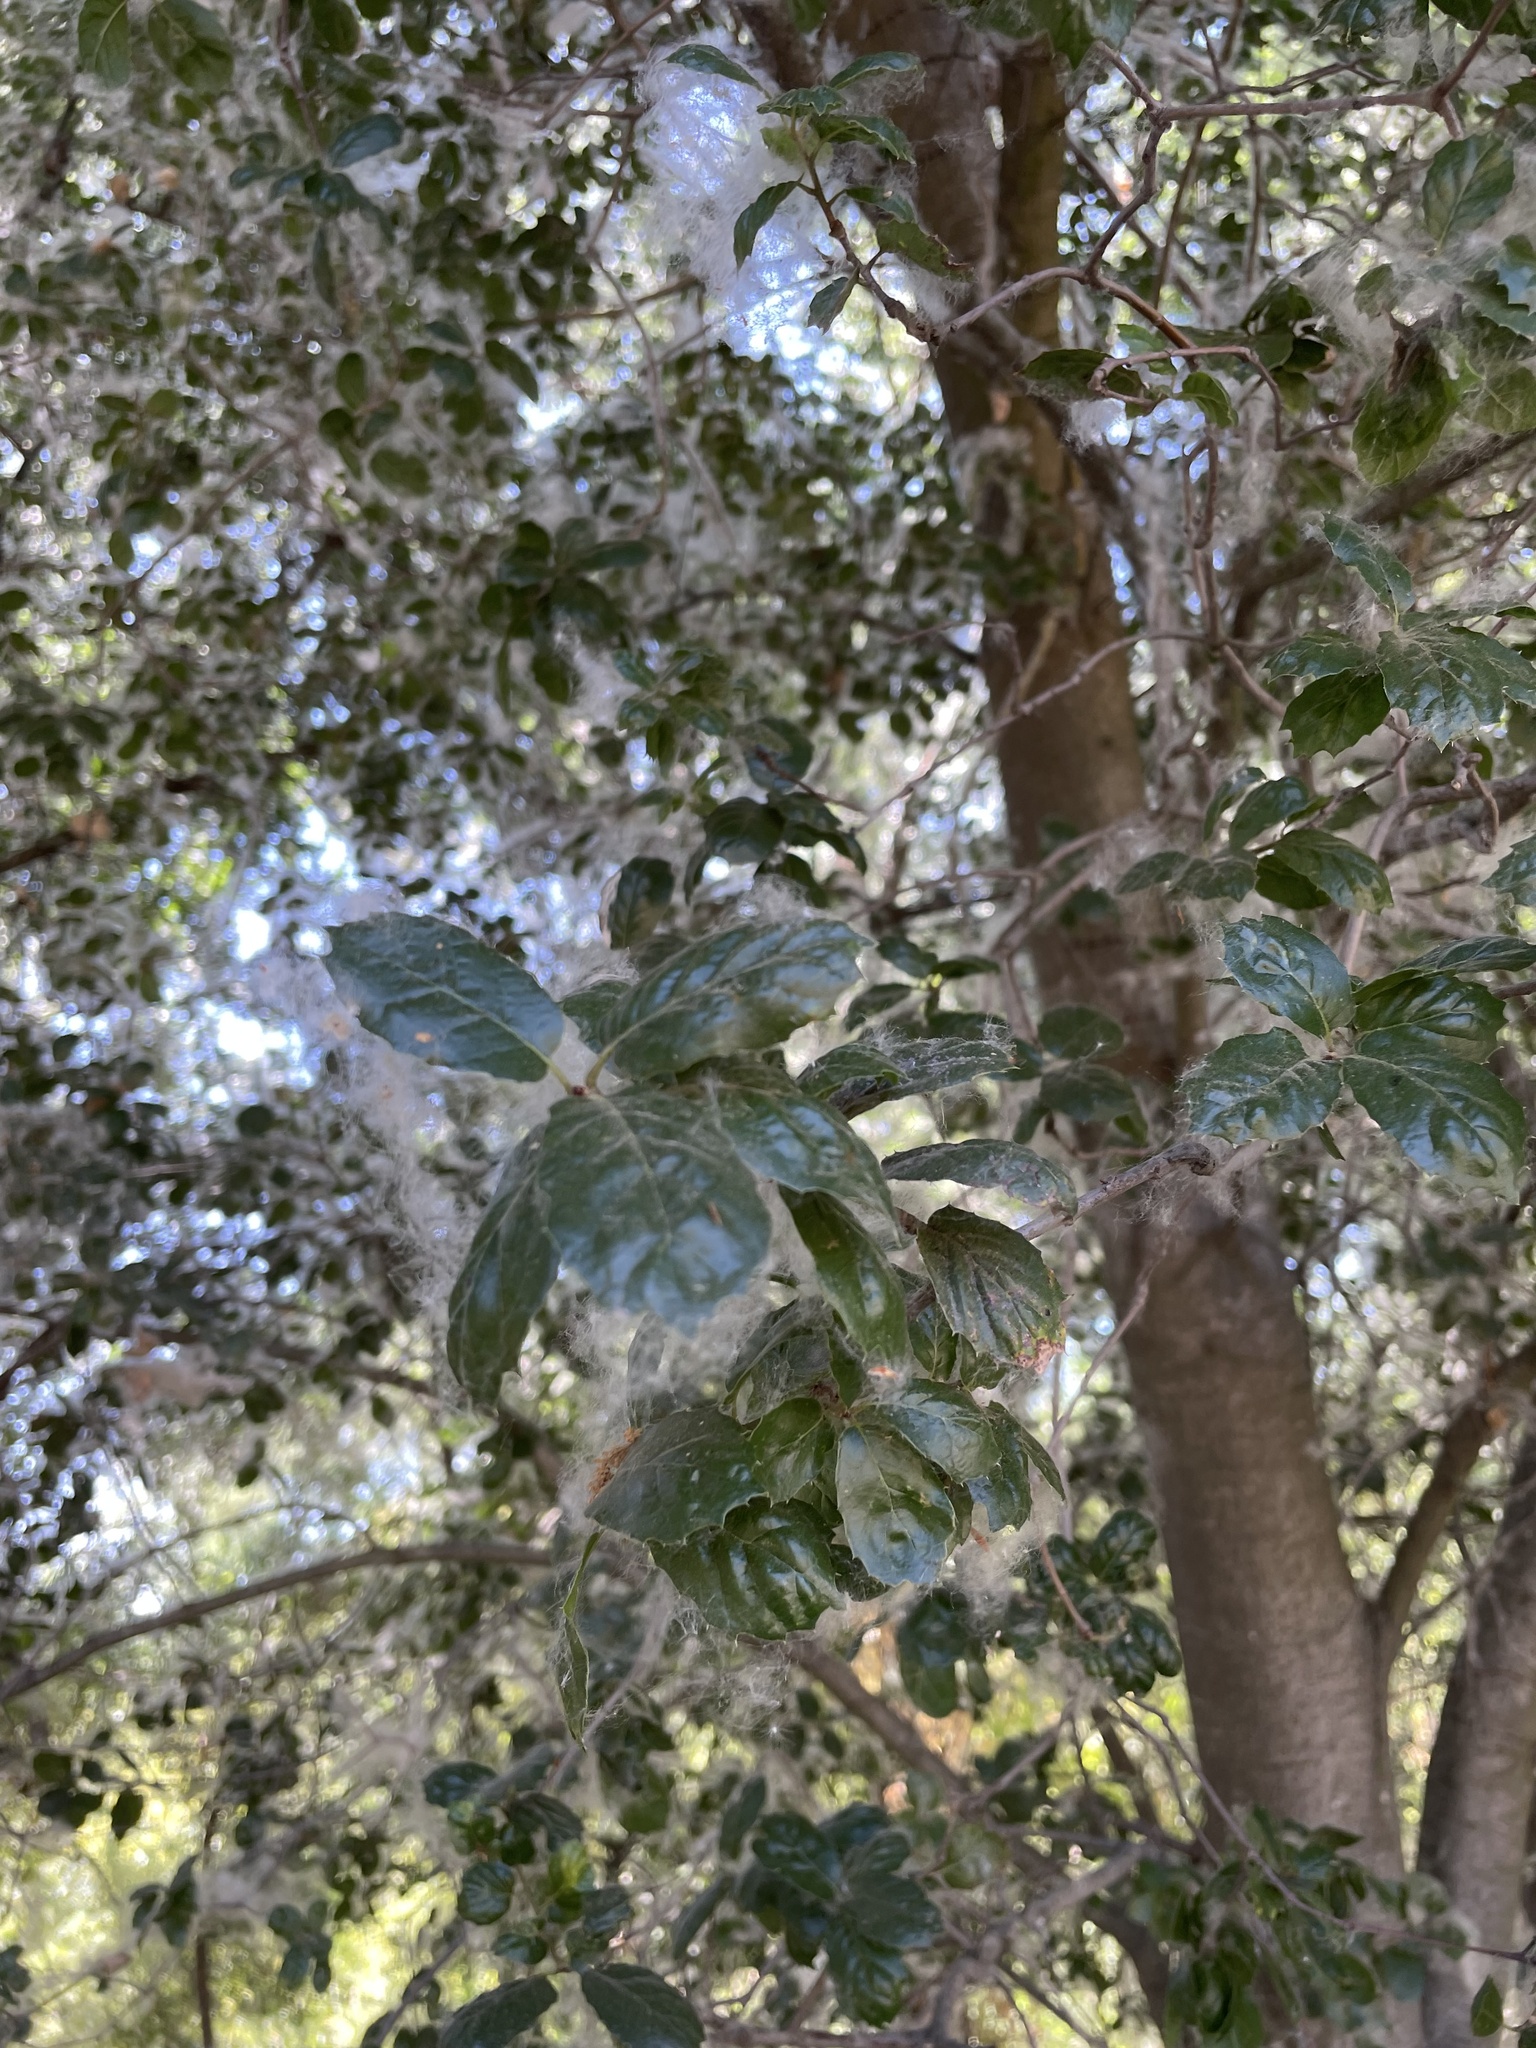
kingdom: Plantae
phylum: Tracheophyta
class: Magnoliopsida
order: Fagales
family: Fagaceae
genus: Quercus
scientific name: Quercus agrifolia
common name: California live oak
